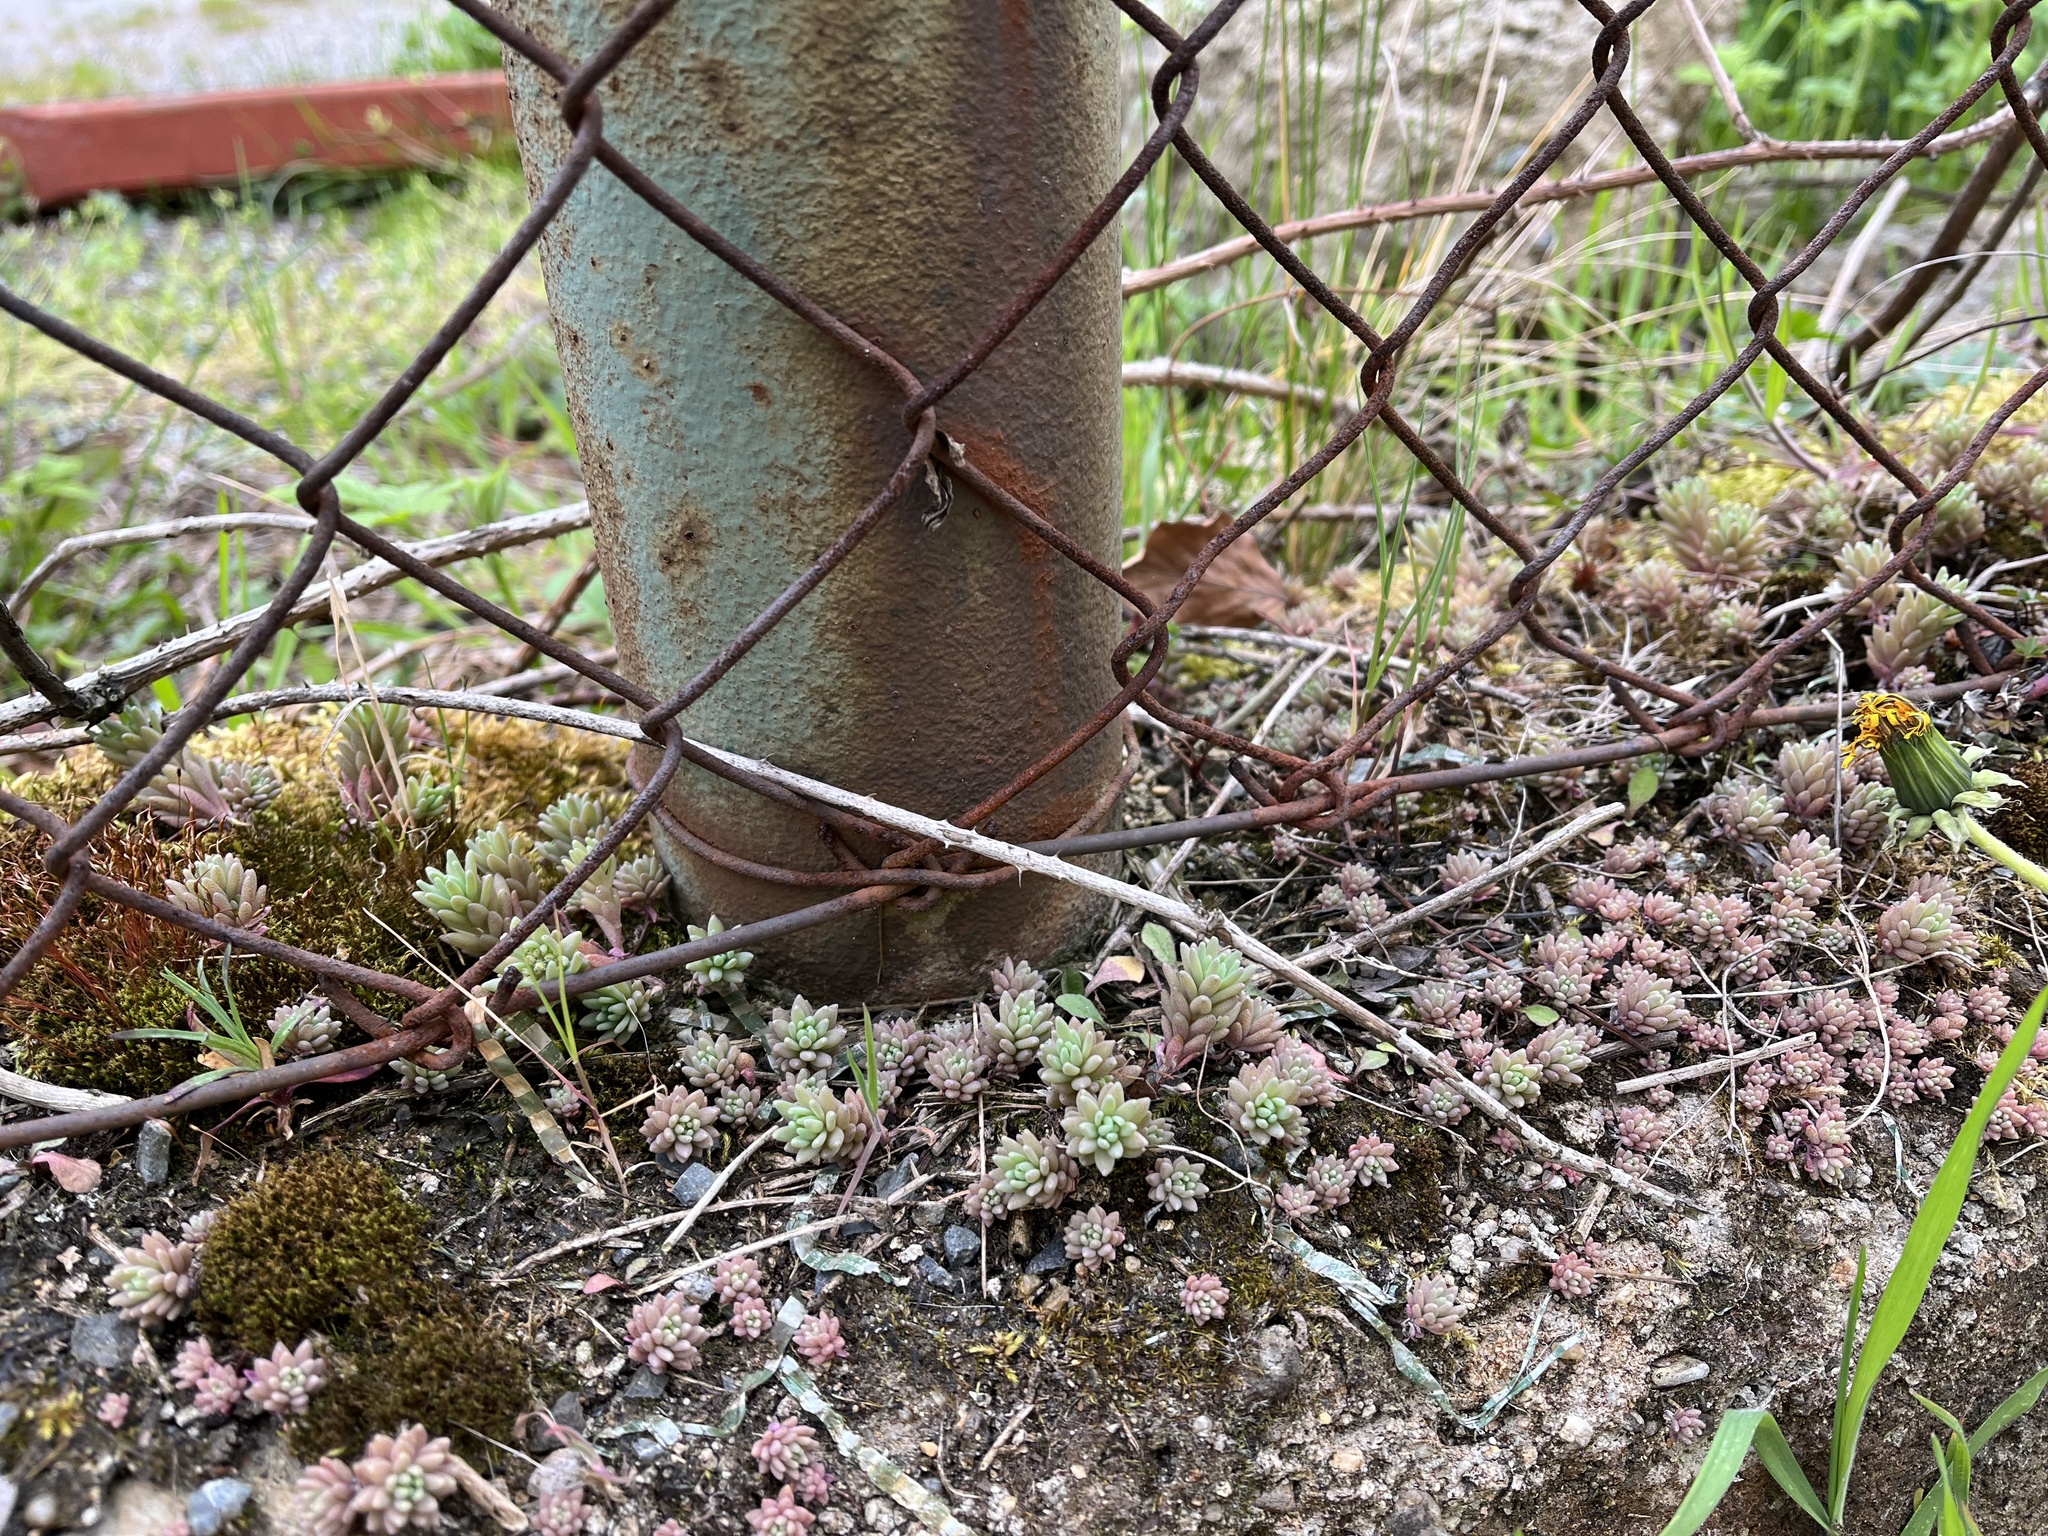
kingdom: Plantae
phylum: Tracheophyta
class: Magnoliopsida
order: Saxifragales
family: Crassulaceae
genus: Sedum
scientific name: Sedum hispanicum
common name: Spanish stonecrop
